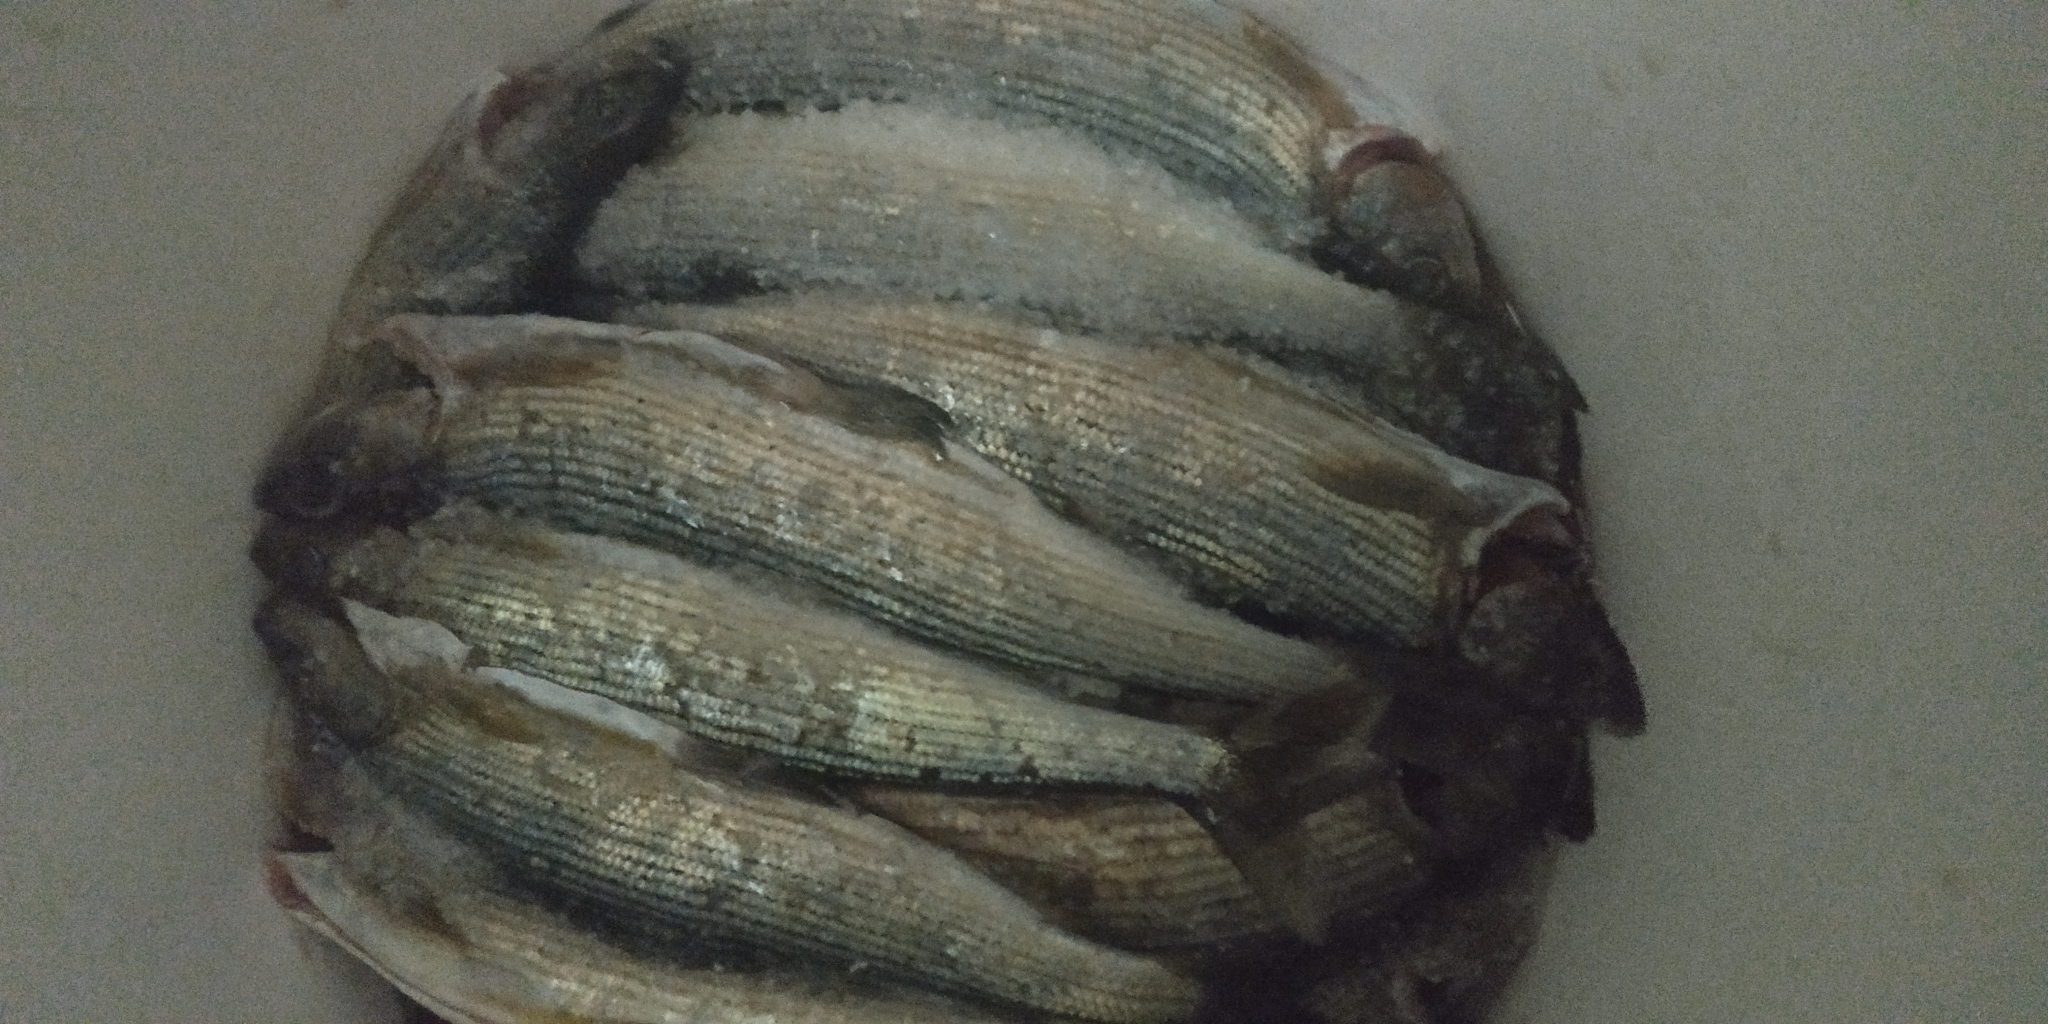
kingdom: Animalia
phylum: Chordata
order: Salmoniformes
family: Salmonidae
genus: Thymallus
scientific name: Thymallus arcticus
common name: Arctic grayling
